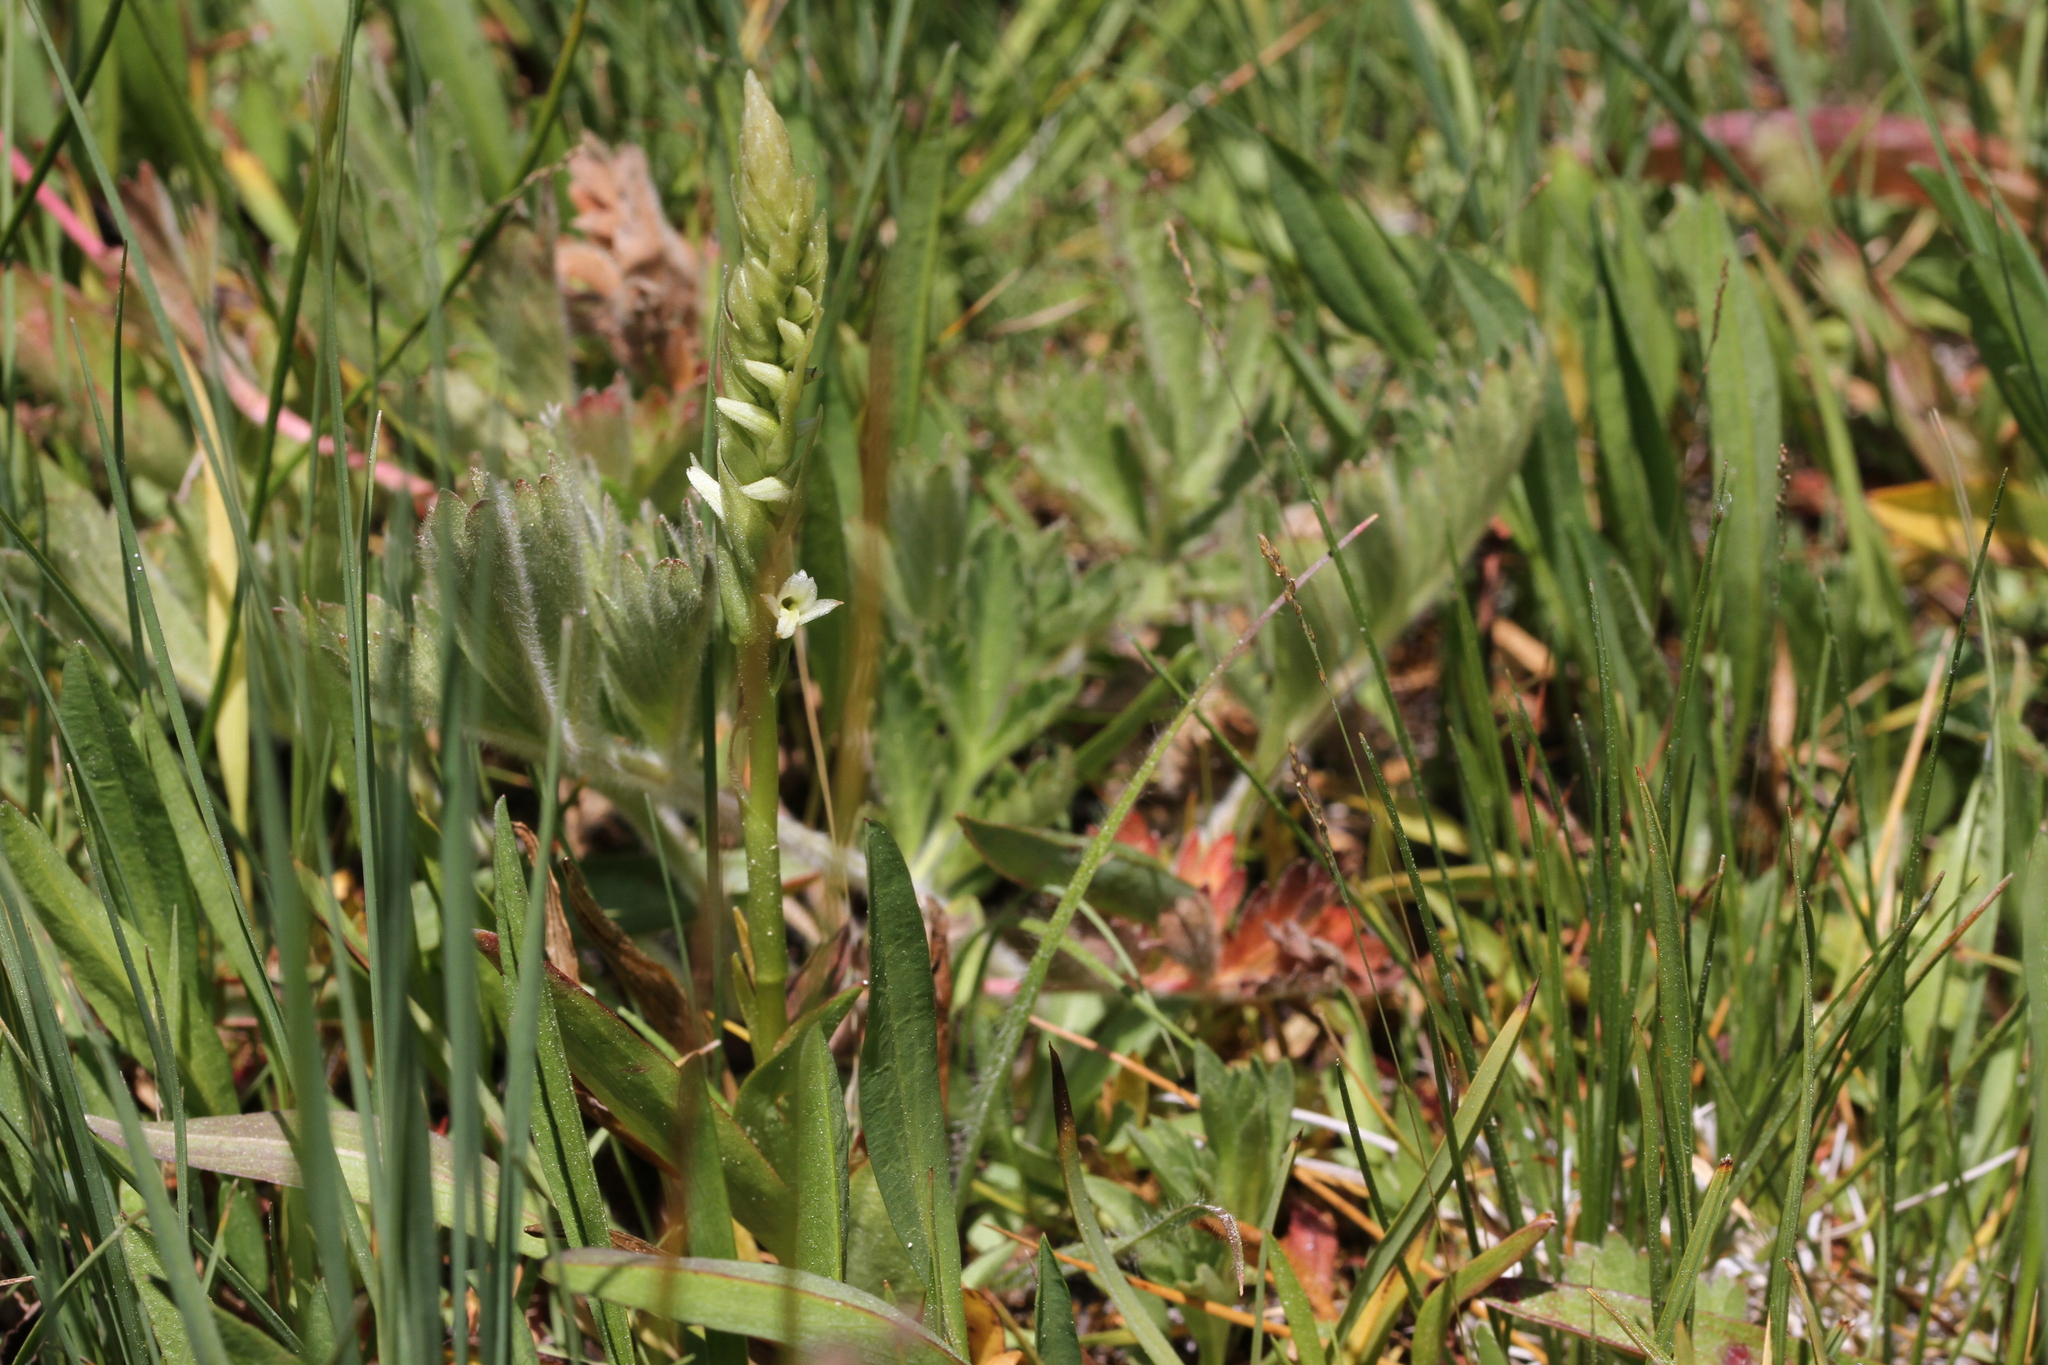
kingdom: Plantae
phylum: Tracheophyta
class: Liliopsida
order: Asparagales
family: Orchidaceae
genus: Spiranthes
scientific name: Spiranthes stellata
